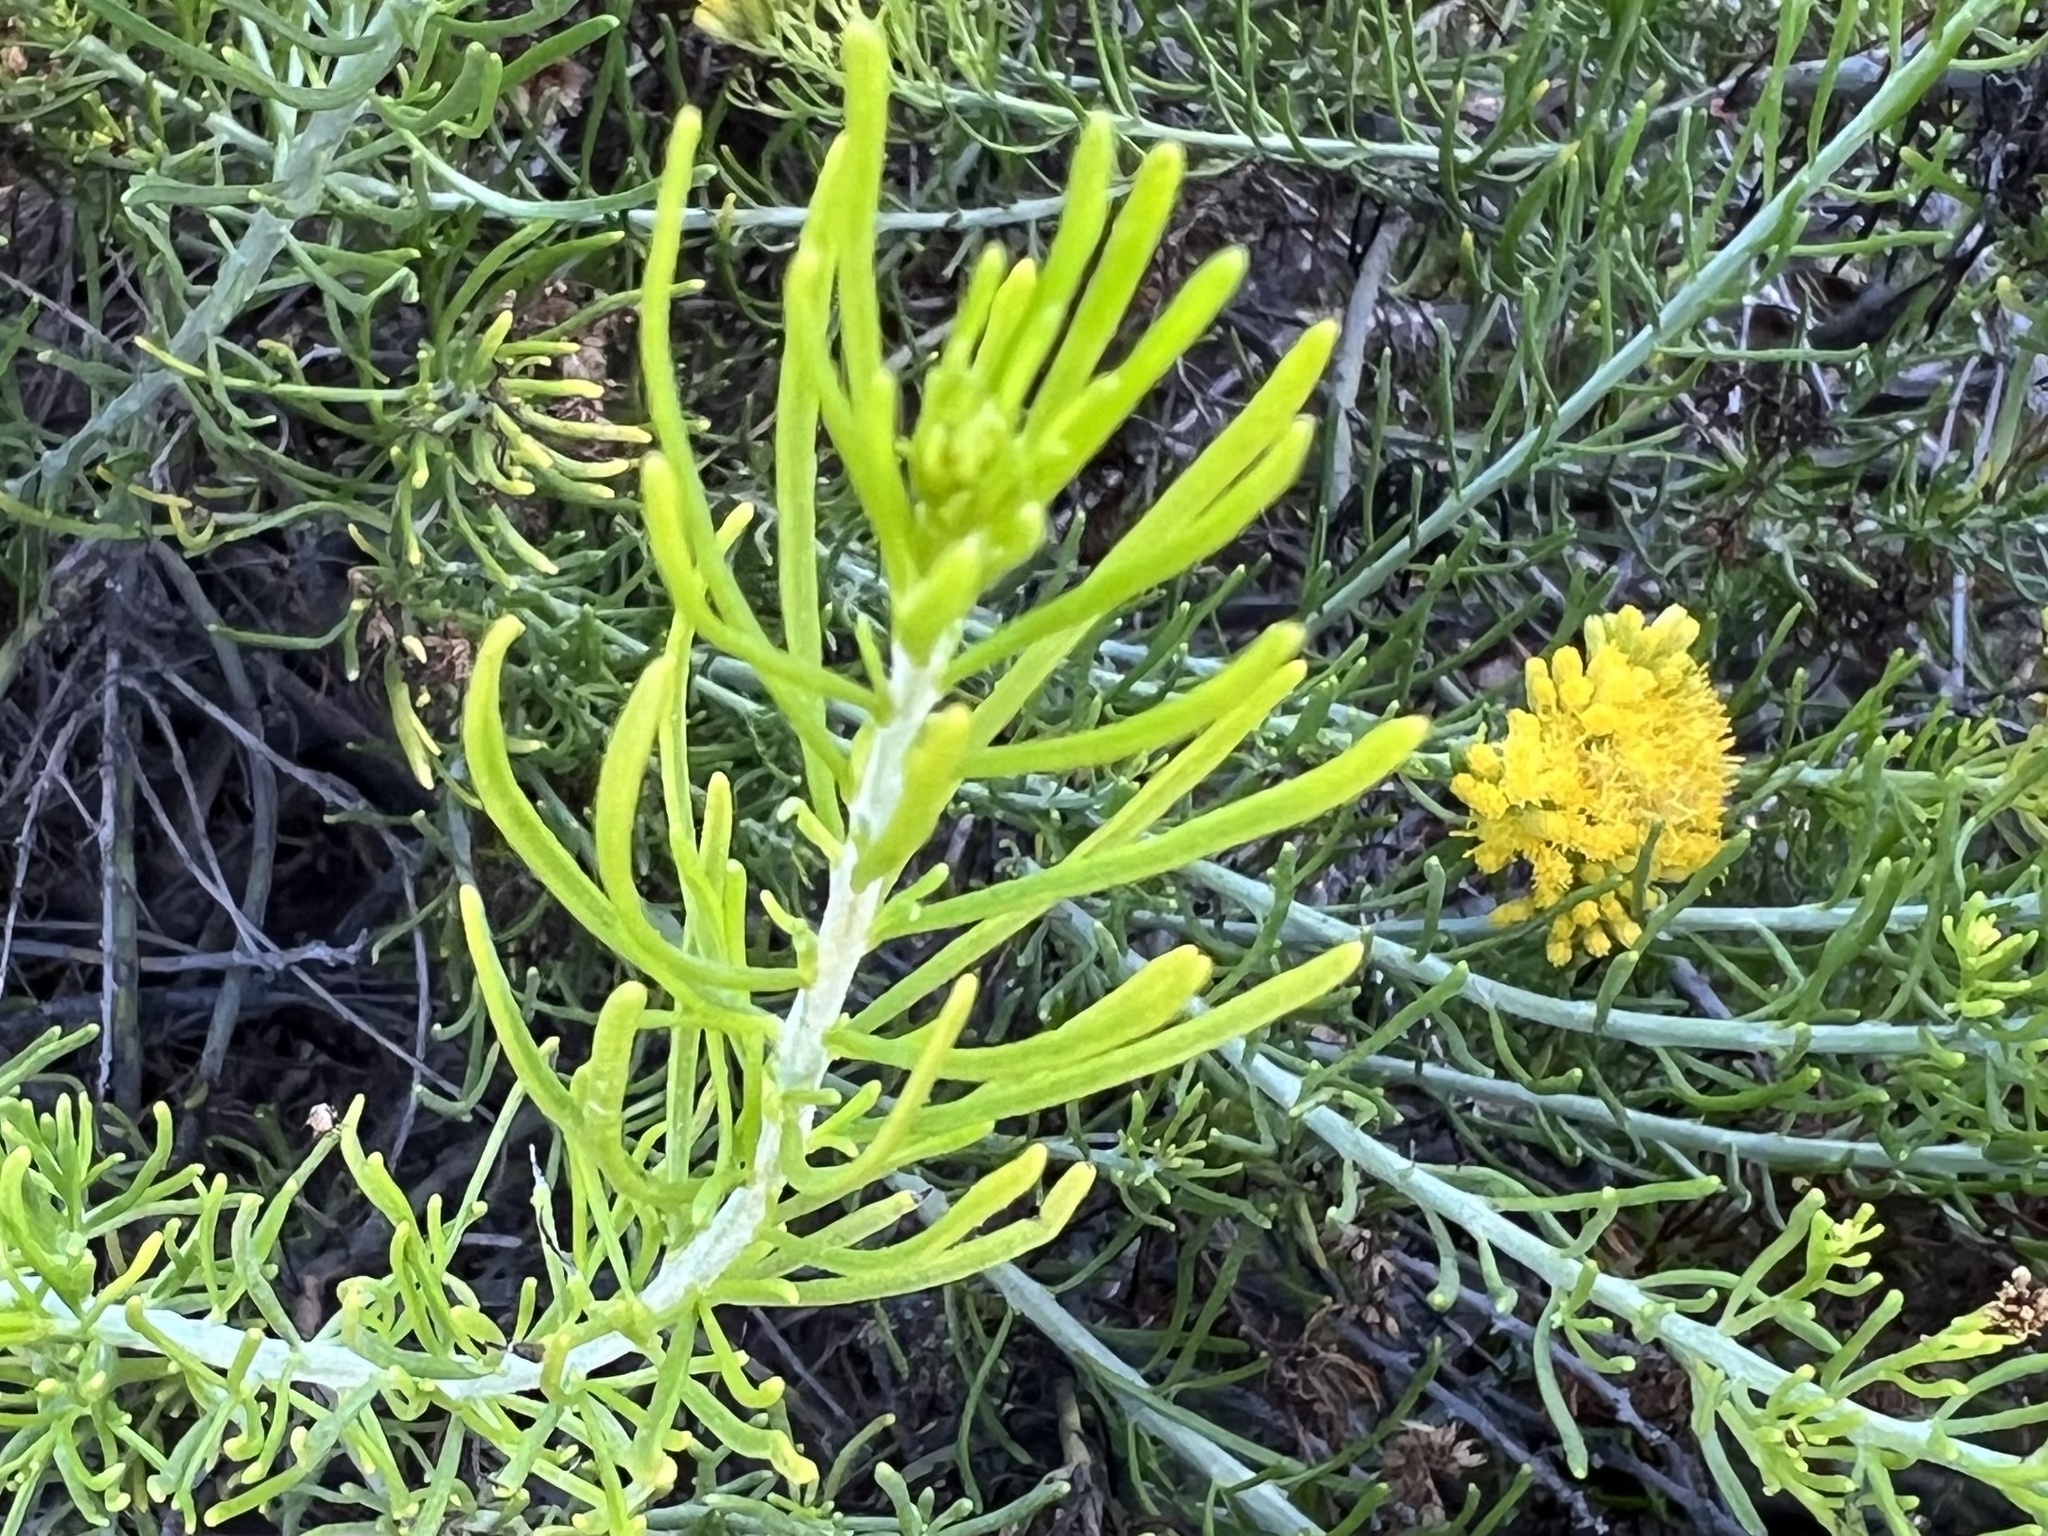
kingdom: Plantae
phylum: Tracheophyta
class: Magnoliopsida
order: Asterales
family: Asteraceae
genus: Schizogyne
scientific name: Schizogyne glaberrima
